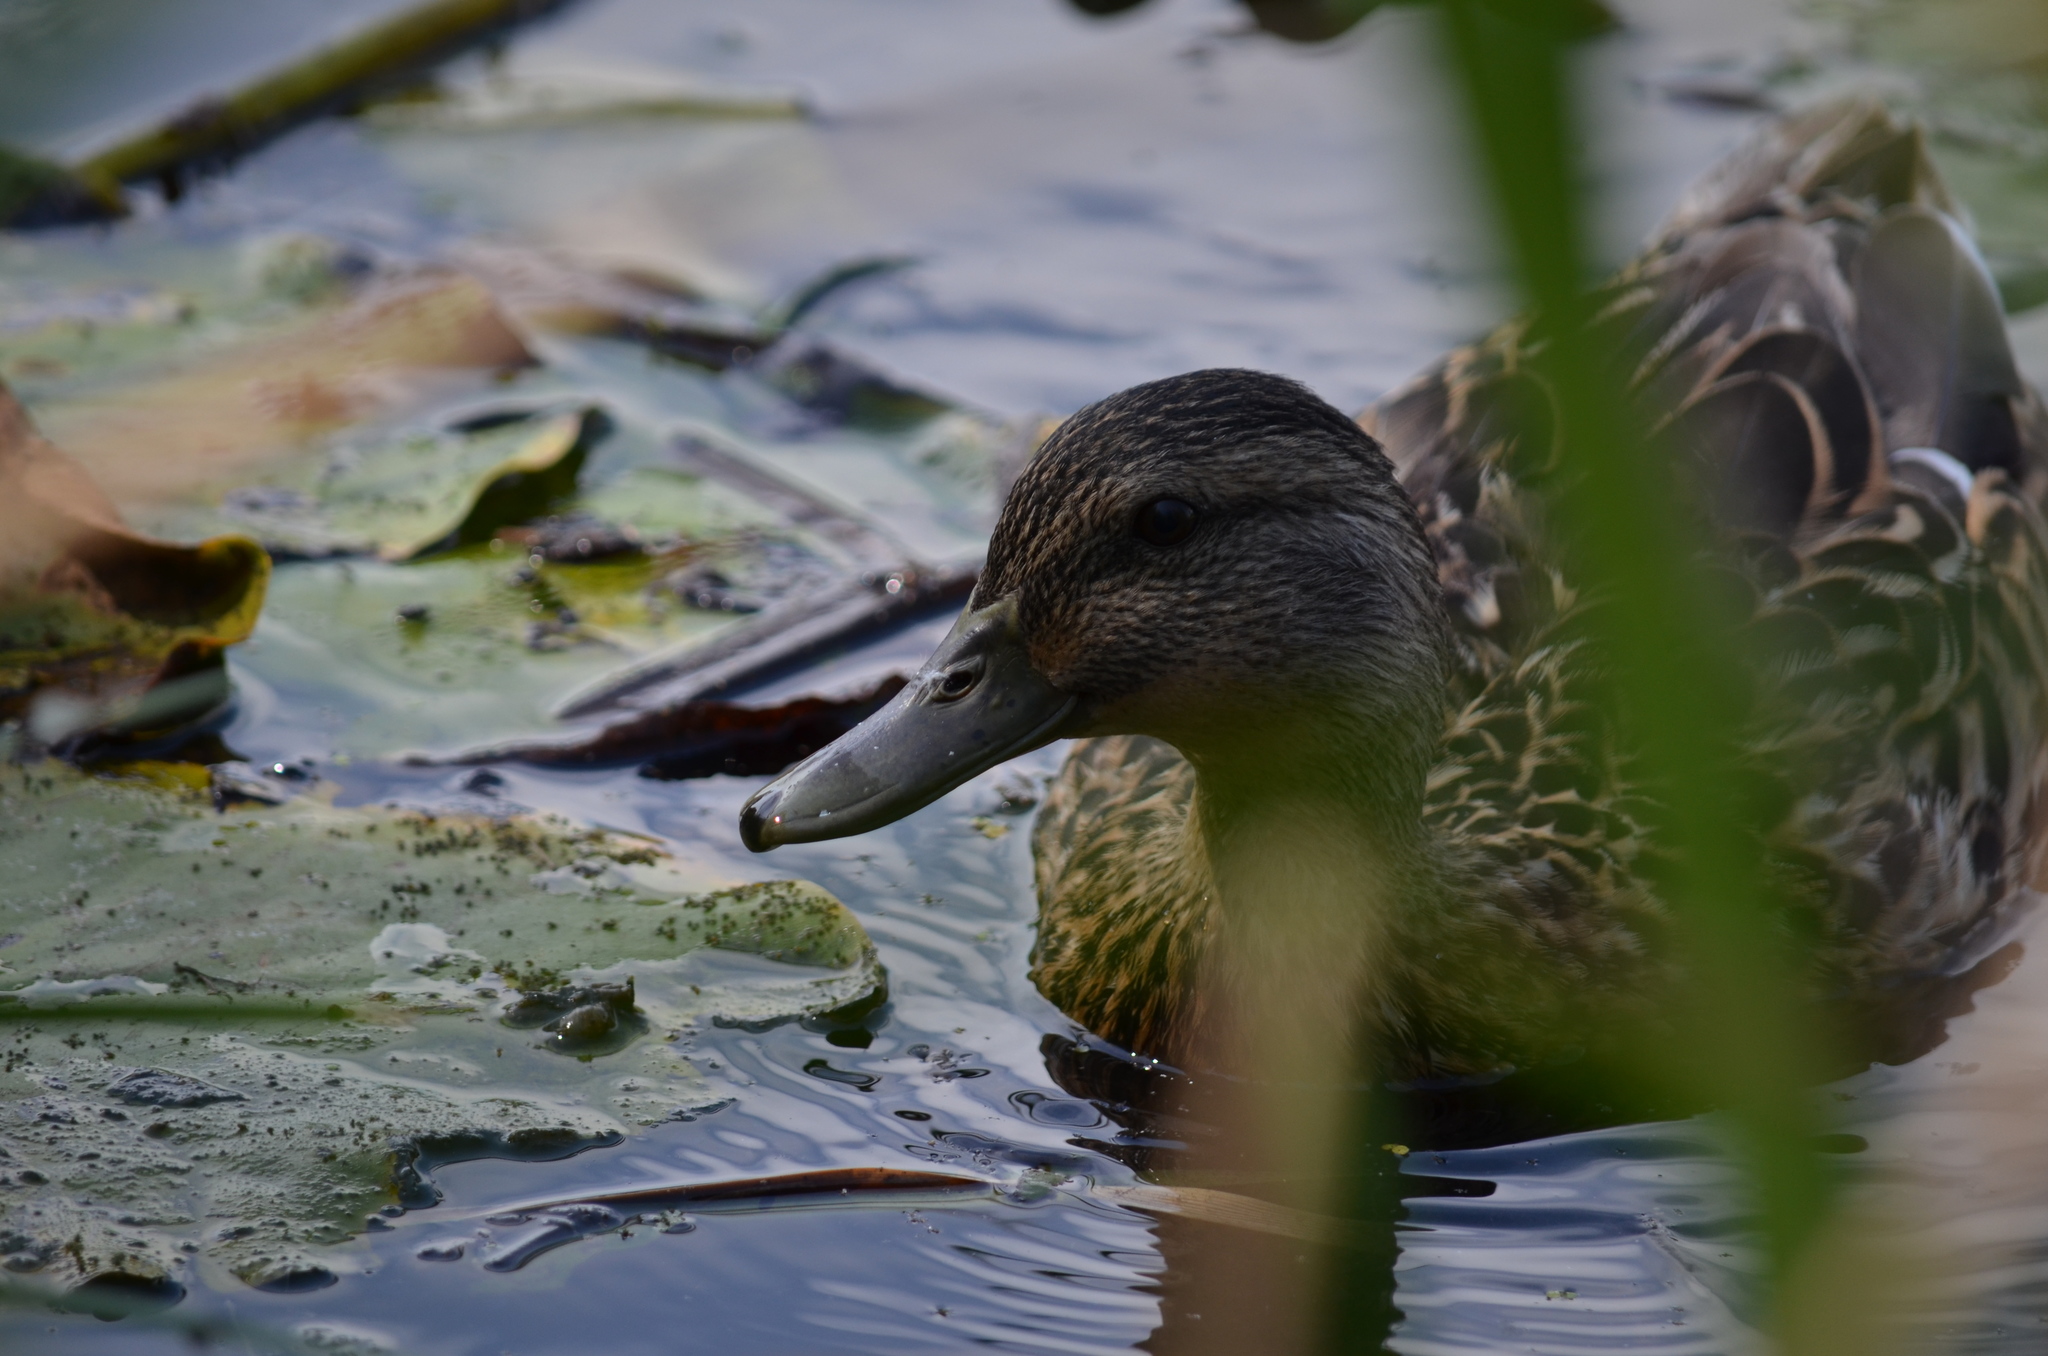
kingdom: Animalia
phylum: Chordata
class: Aves
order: Anseriformes
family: Anatidae
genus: Anas
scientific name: Anas platyrhynchos
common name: Mallard
